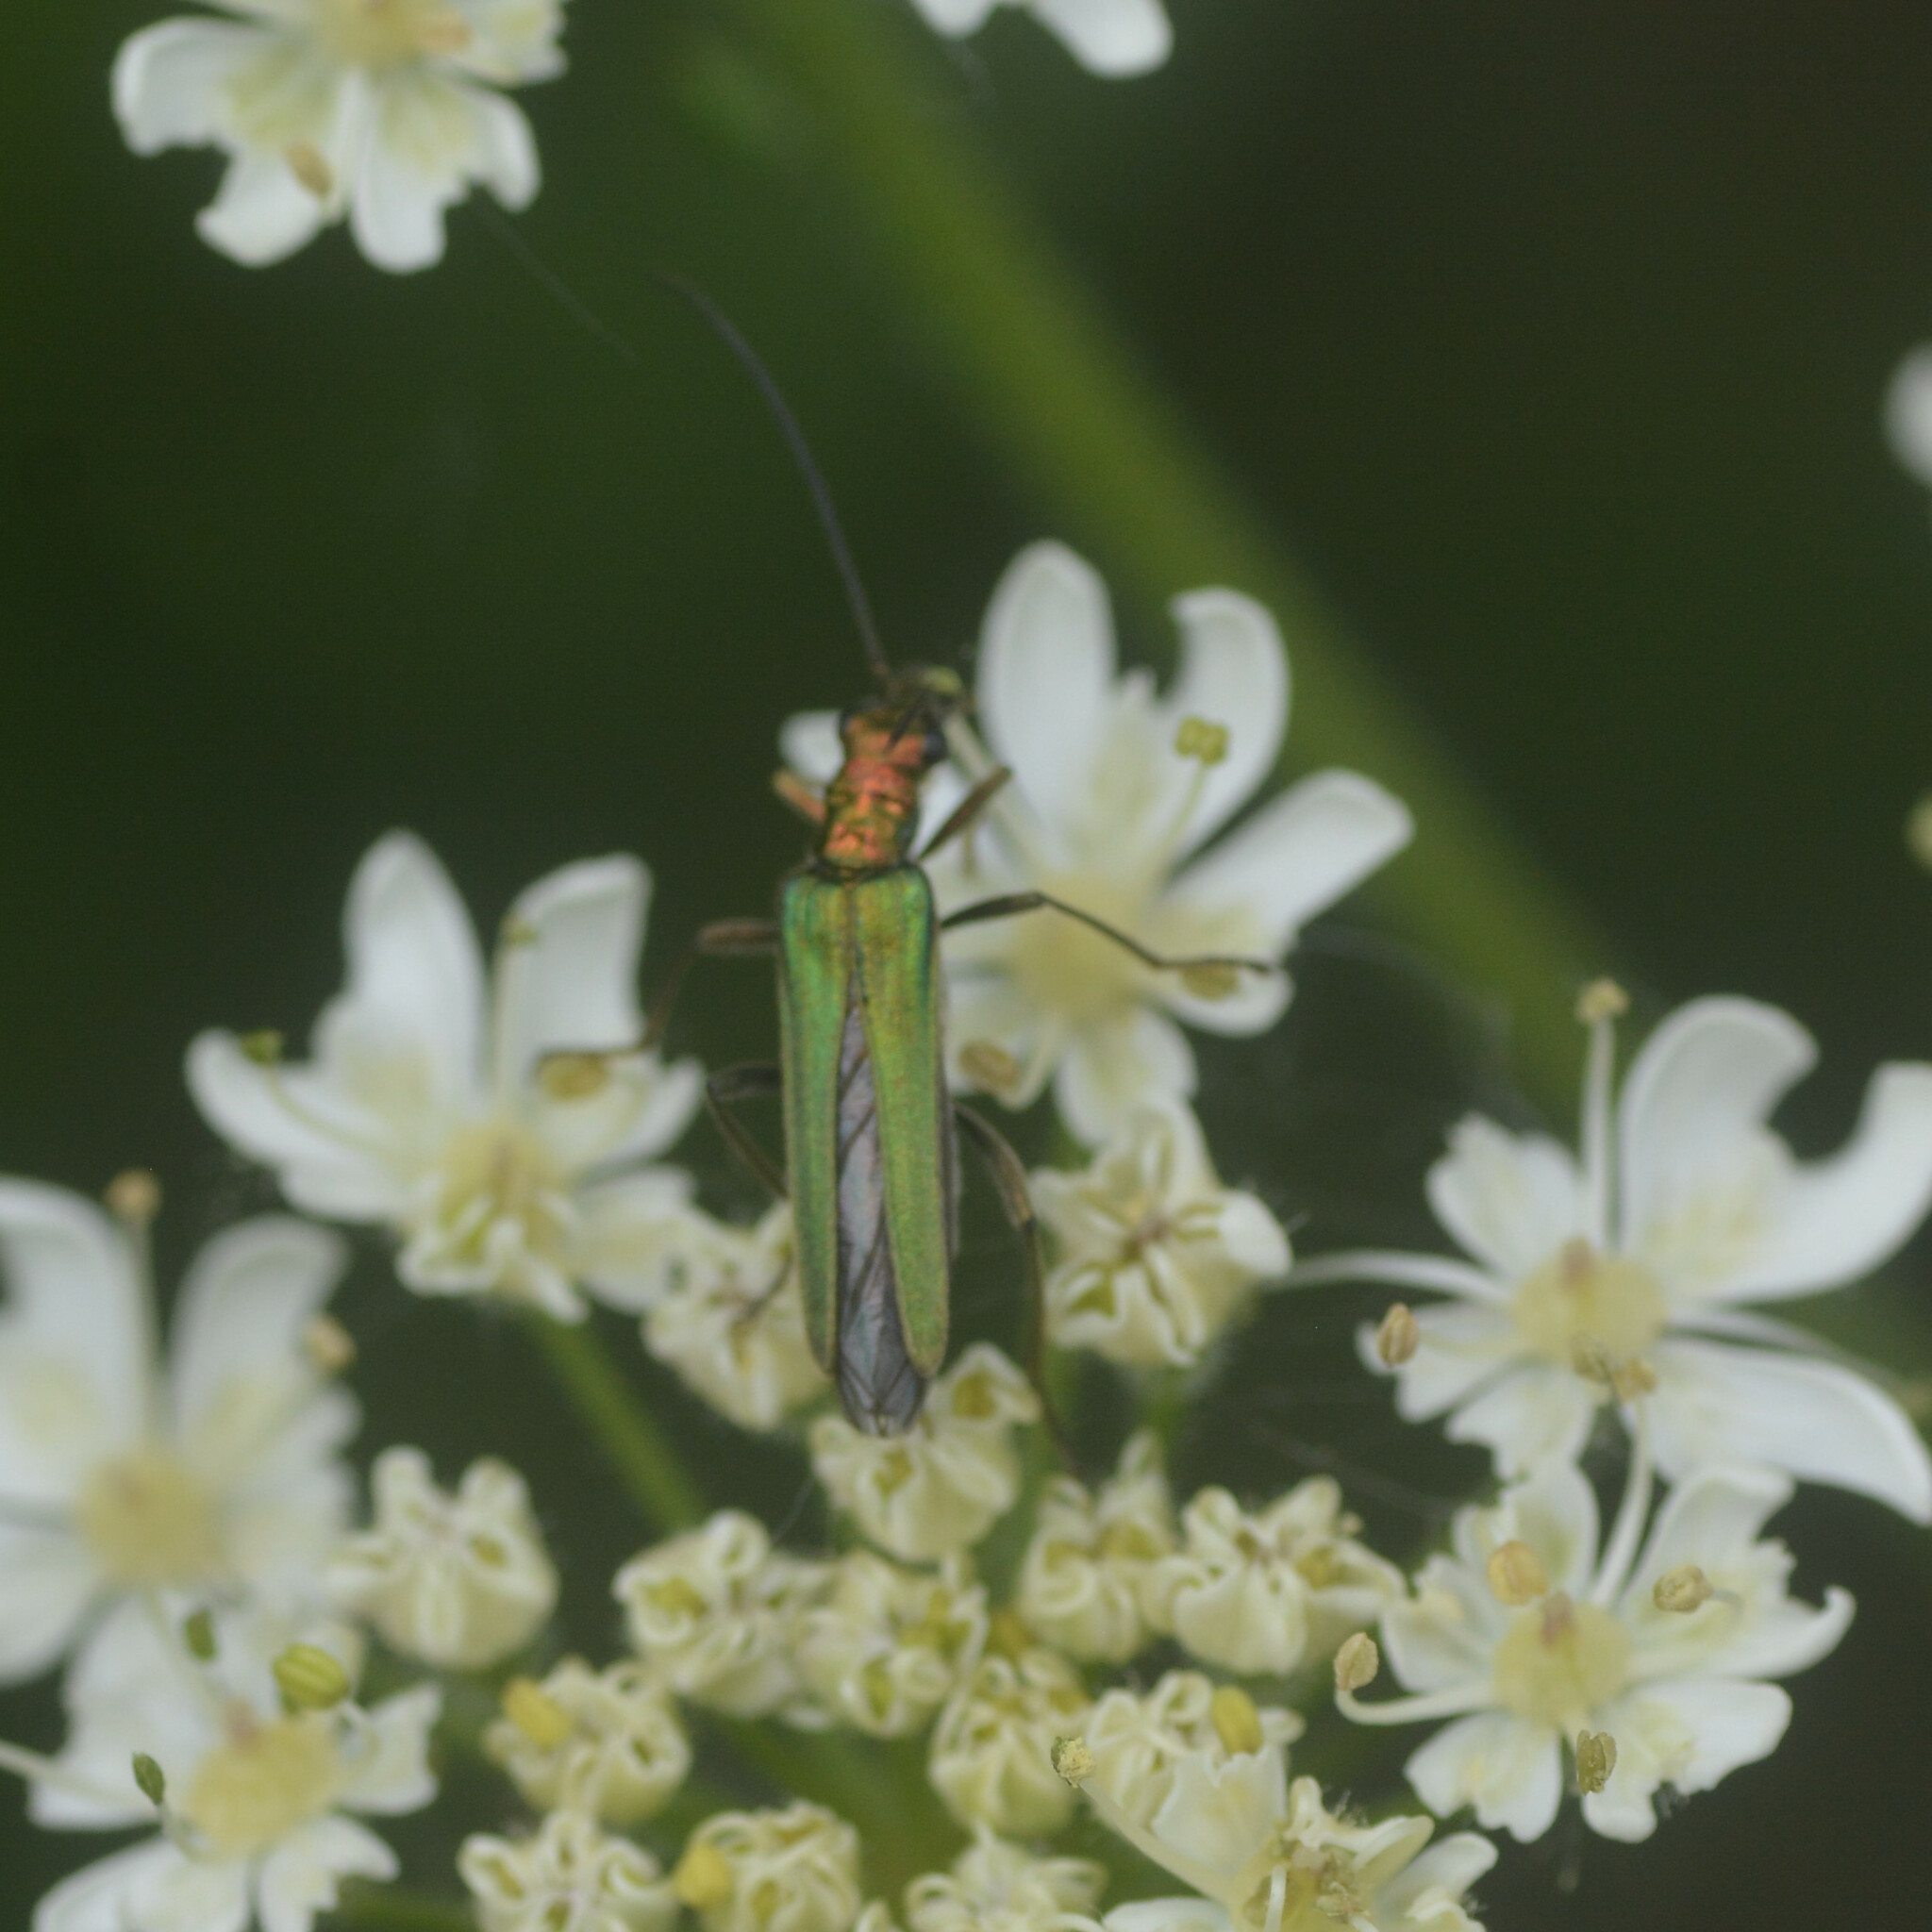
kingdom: Animalia
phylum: Arthropoda
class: Insecta
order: Coleoptera
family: Oedemeridae
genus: Oedemera
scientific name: Oedemera nobilis
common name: Swollen-thighed beetle
